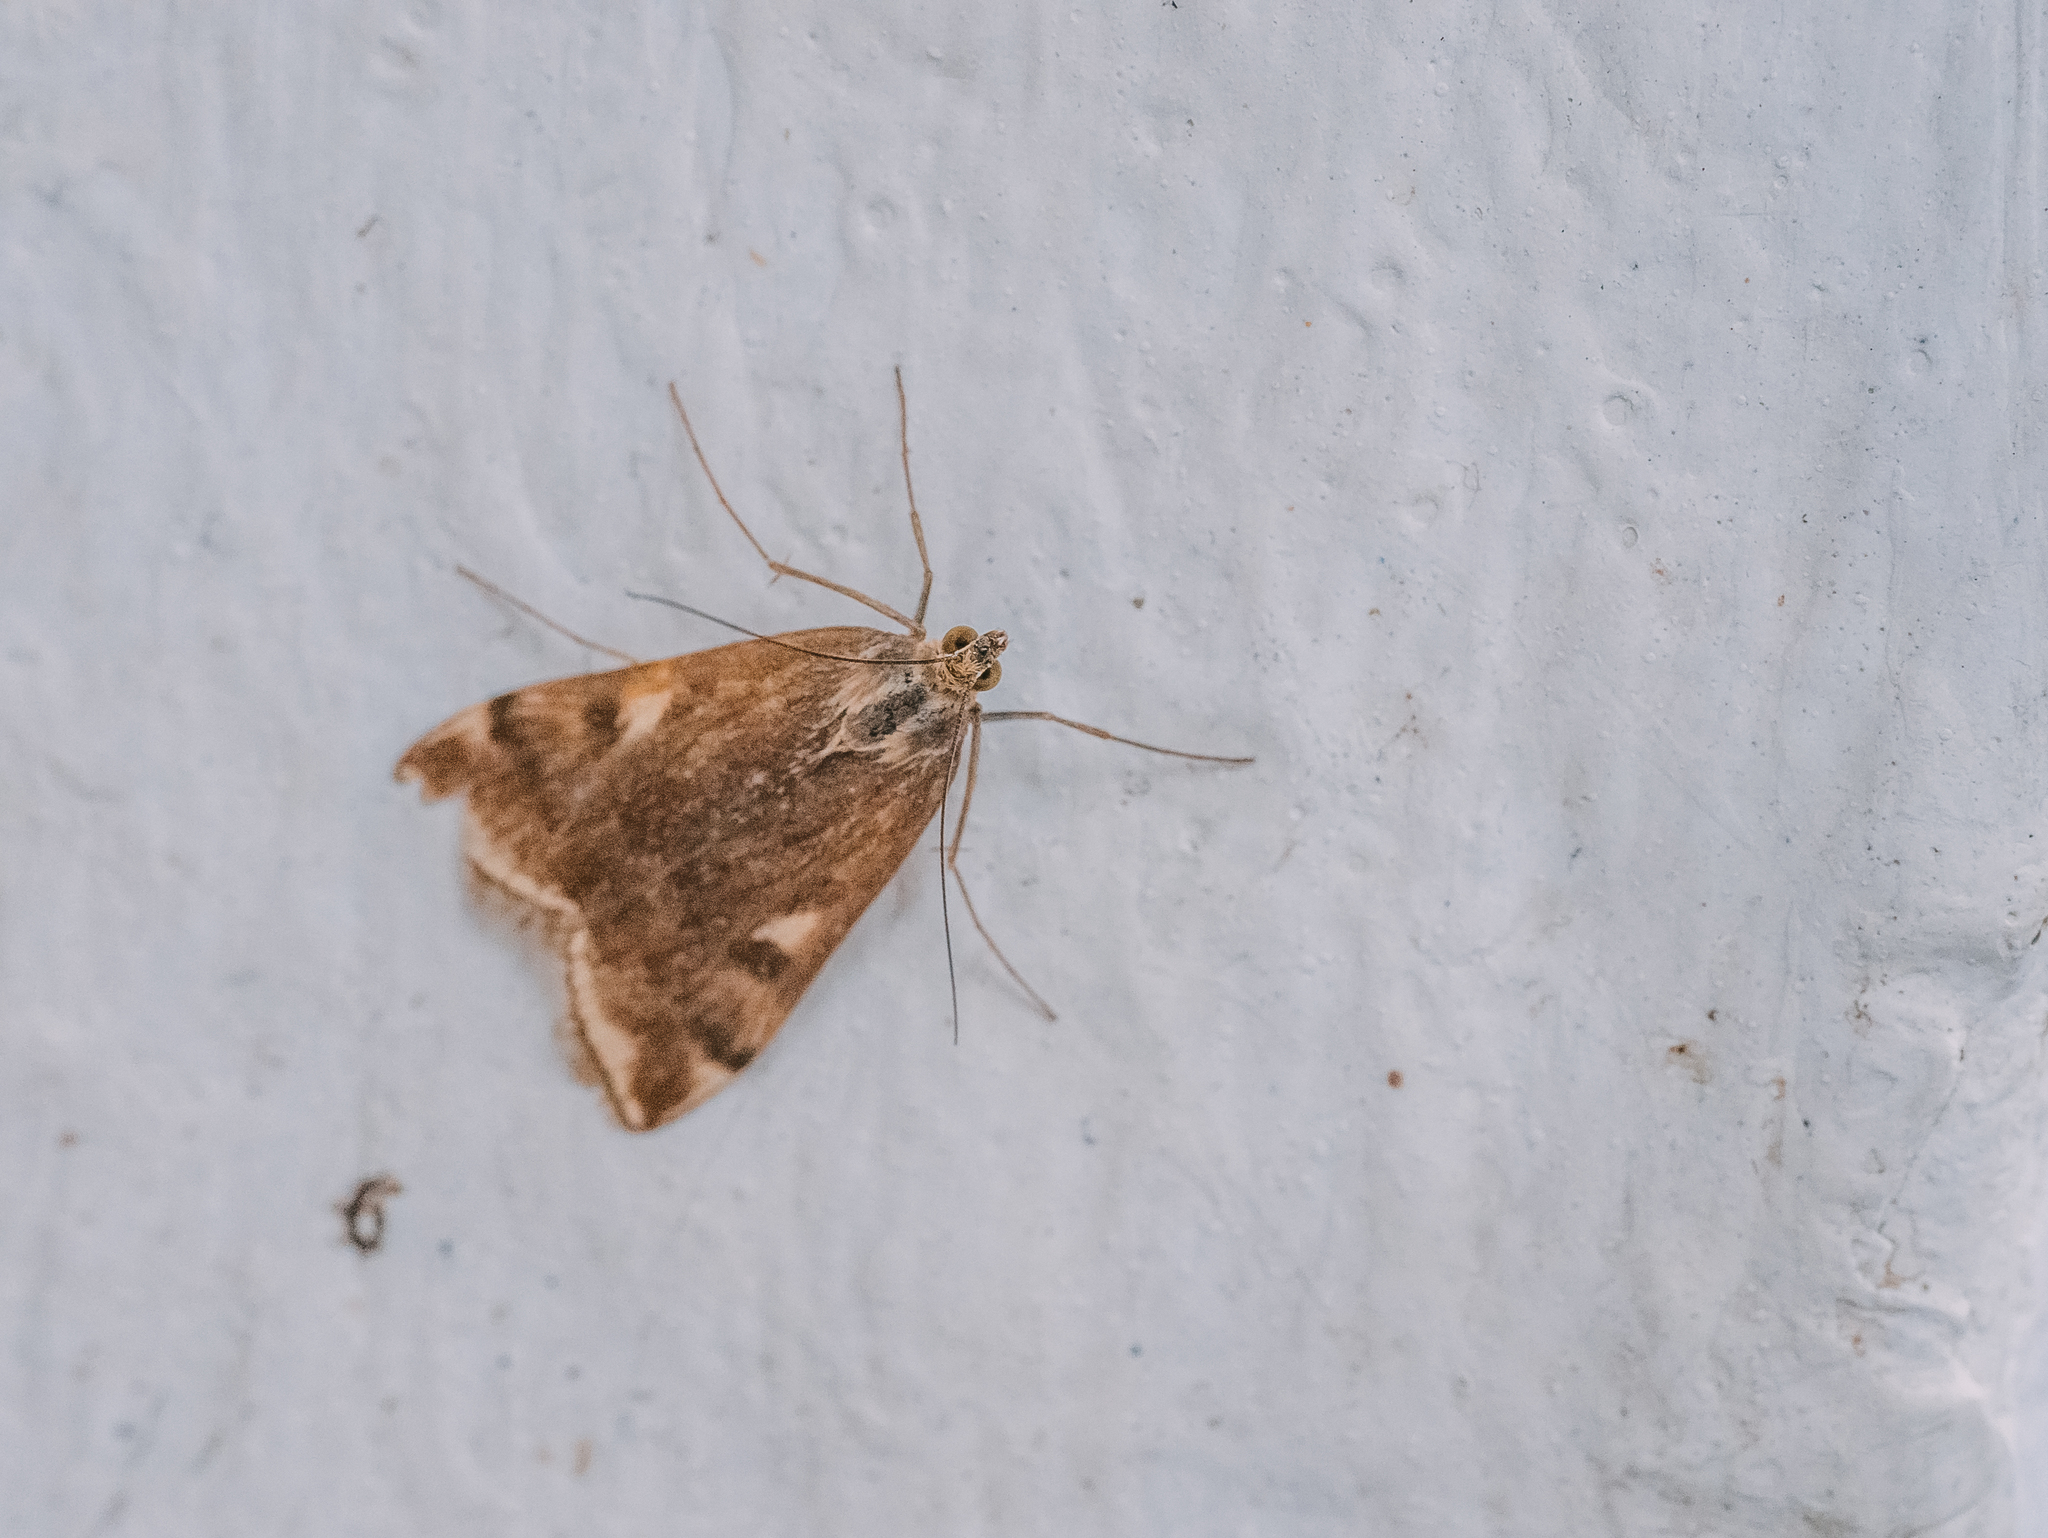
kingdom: Animalia
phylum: Arthropoda
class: Insecta
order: Lepidoptera
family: Crambidae
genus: Loxostege
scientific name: Loxostege sticticalis
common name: Crambid moth
